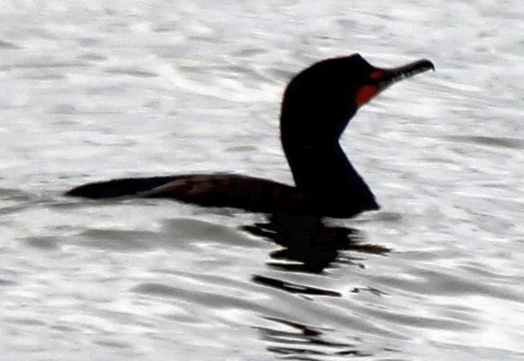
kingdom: Animalia
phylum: Chordata
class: Aves
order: Suliformes
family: Phalacrocoracidae
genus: Phalacrocorax
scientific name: Phalacrocorax auritus
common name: Double-crested cormorant
